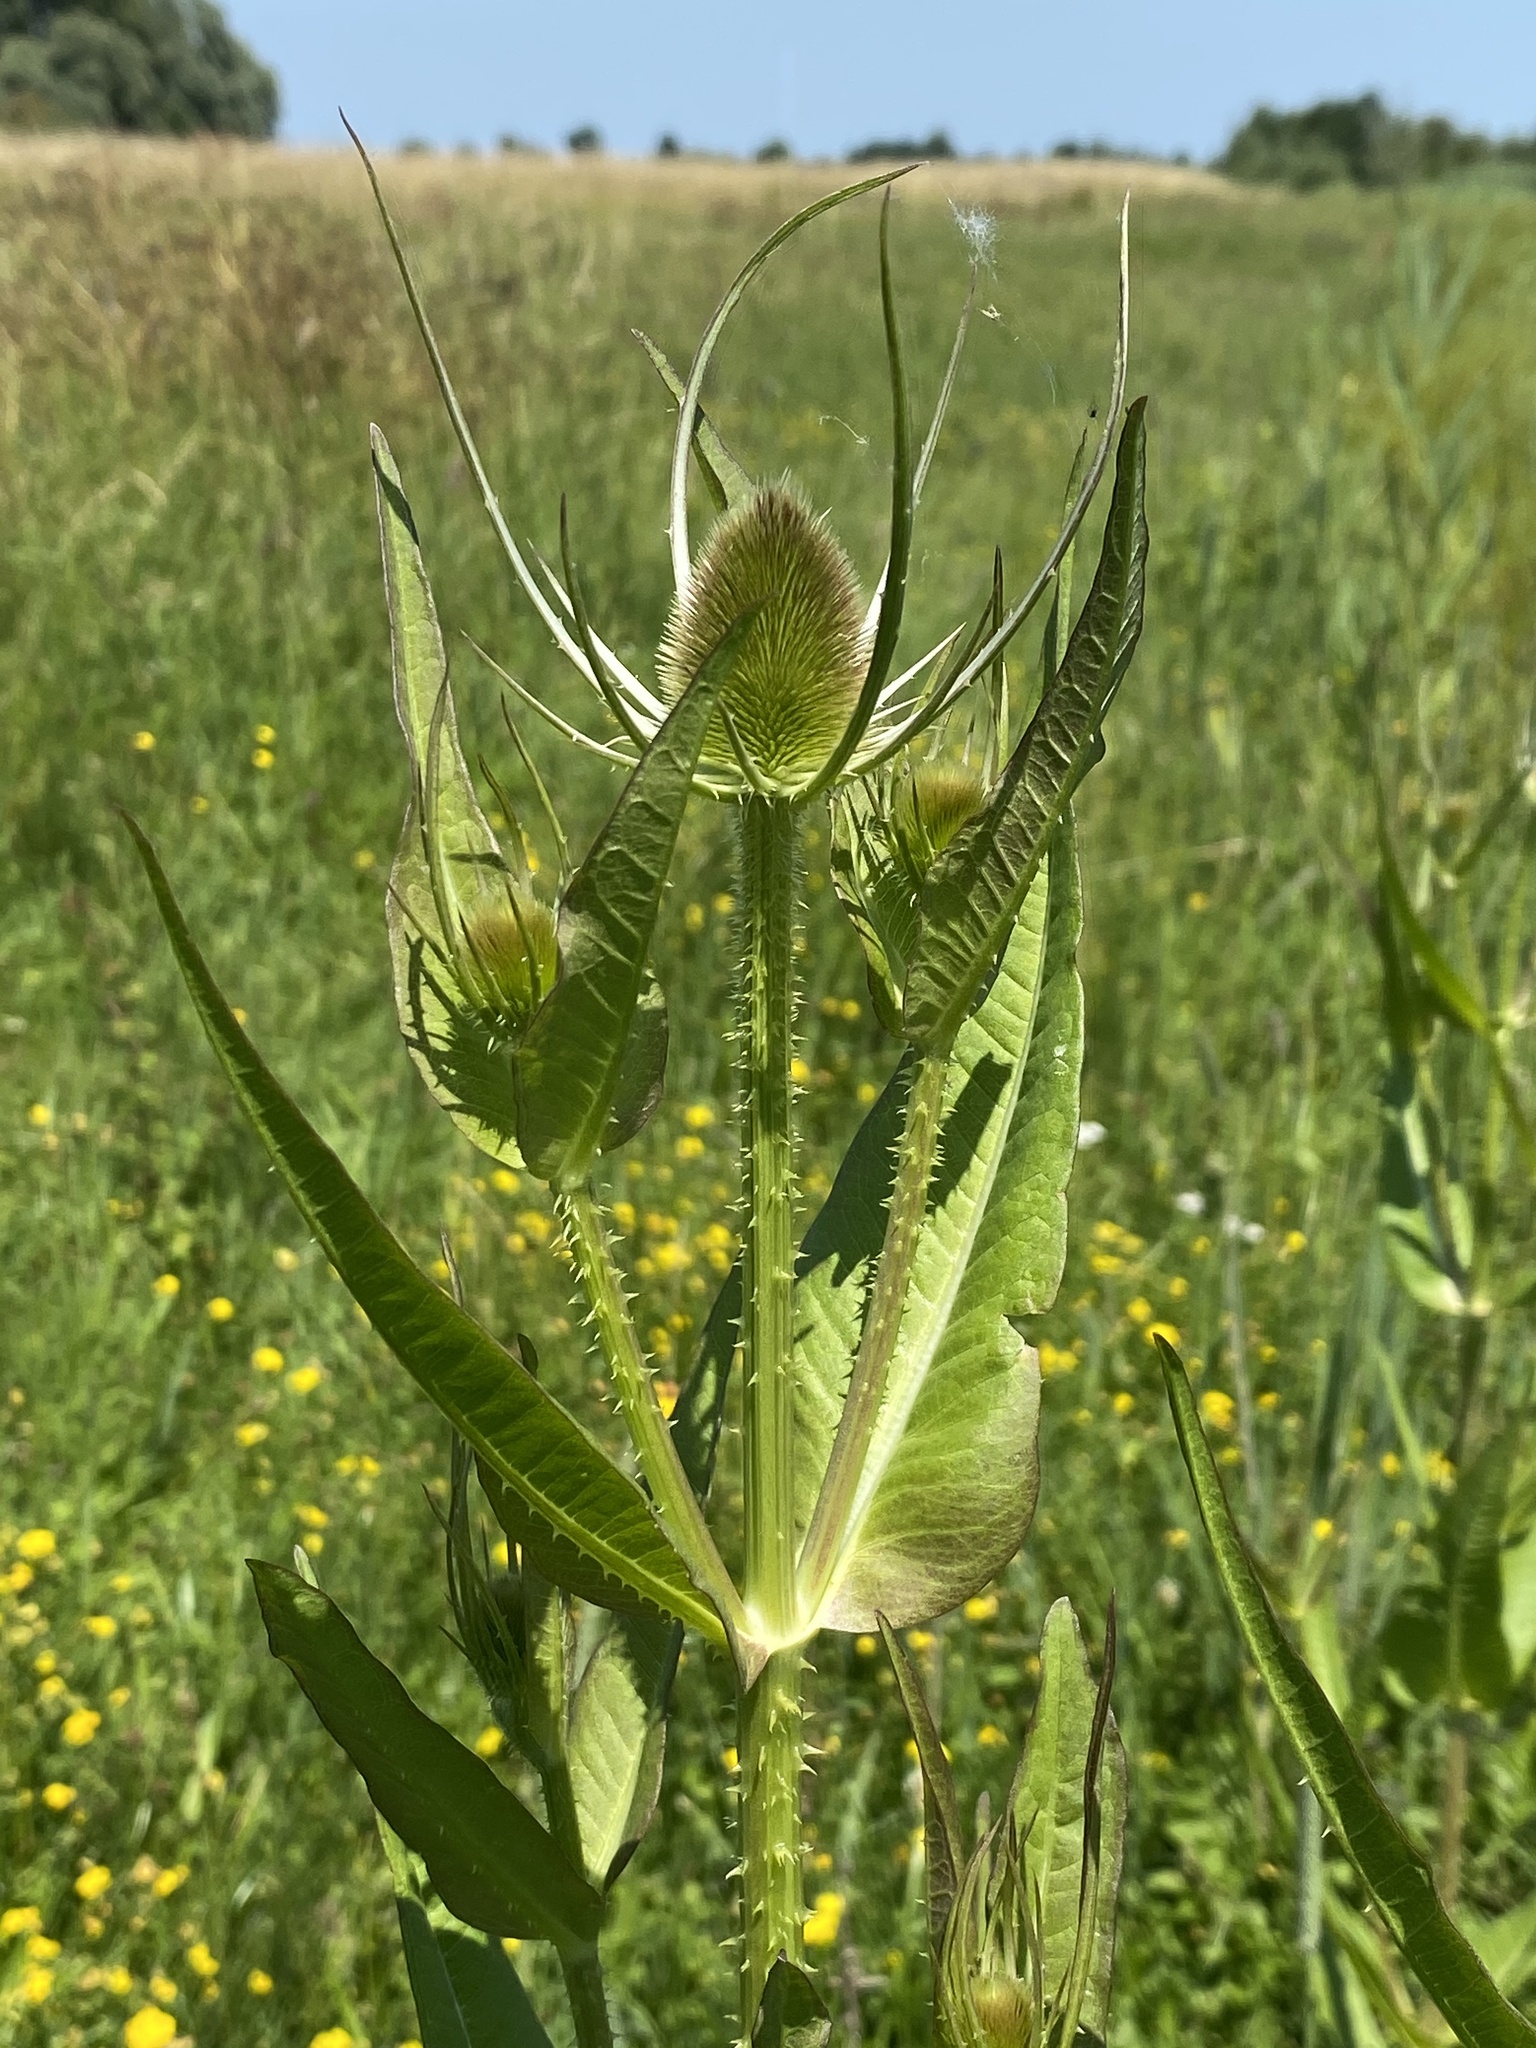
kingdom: Plantae
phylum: Tracheophyta
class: Magnoliopsida
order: Dipsacales
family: Caprifoliaceae
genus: Dipsacus
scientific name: Dipsacus fullonum
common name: Teasel
